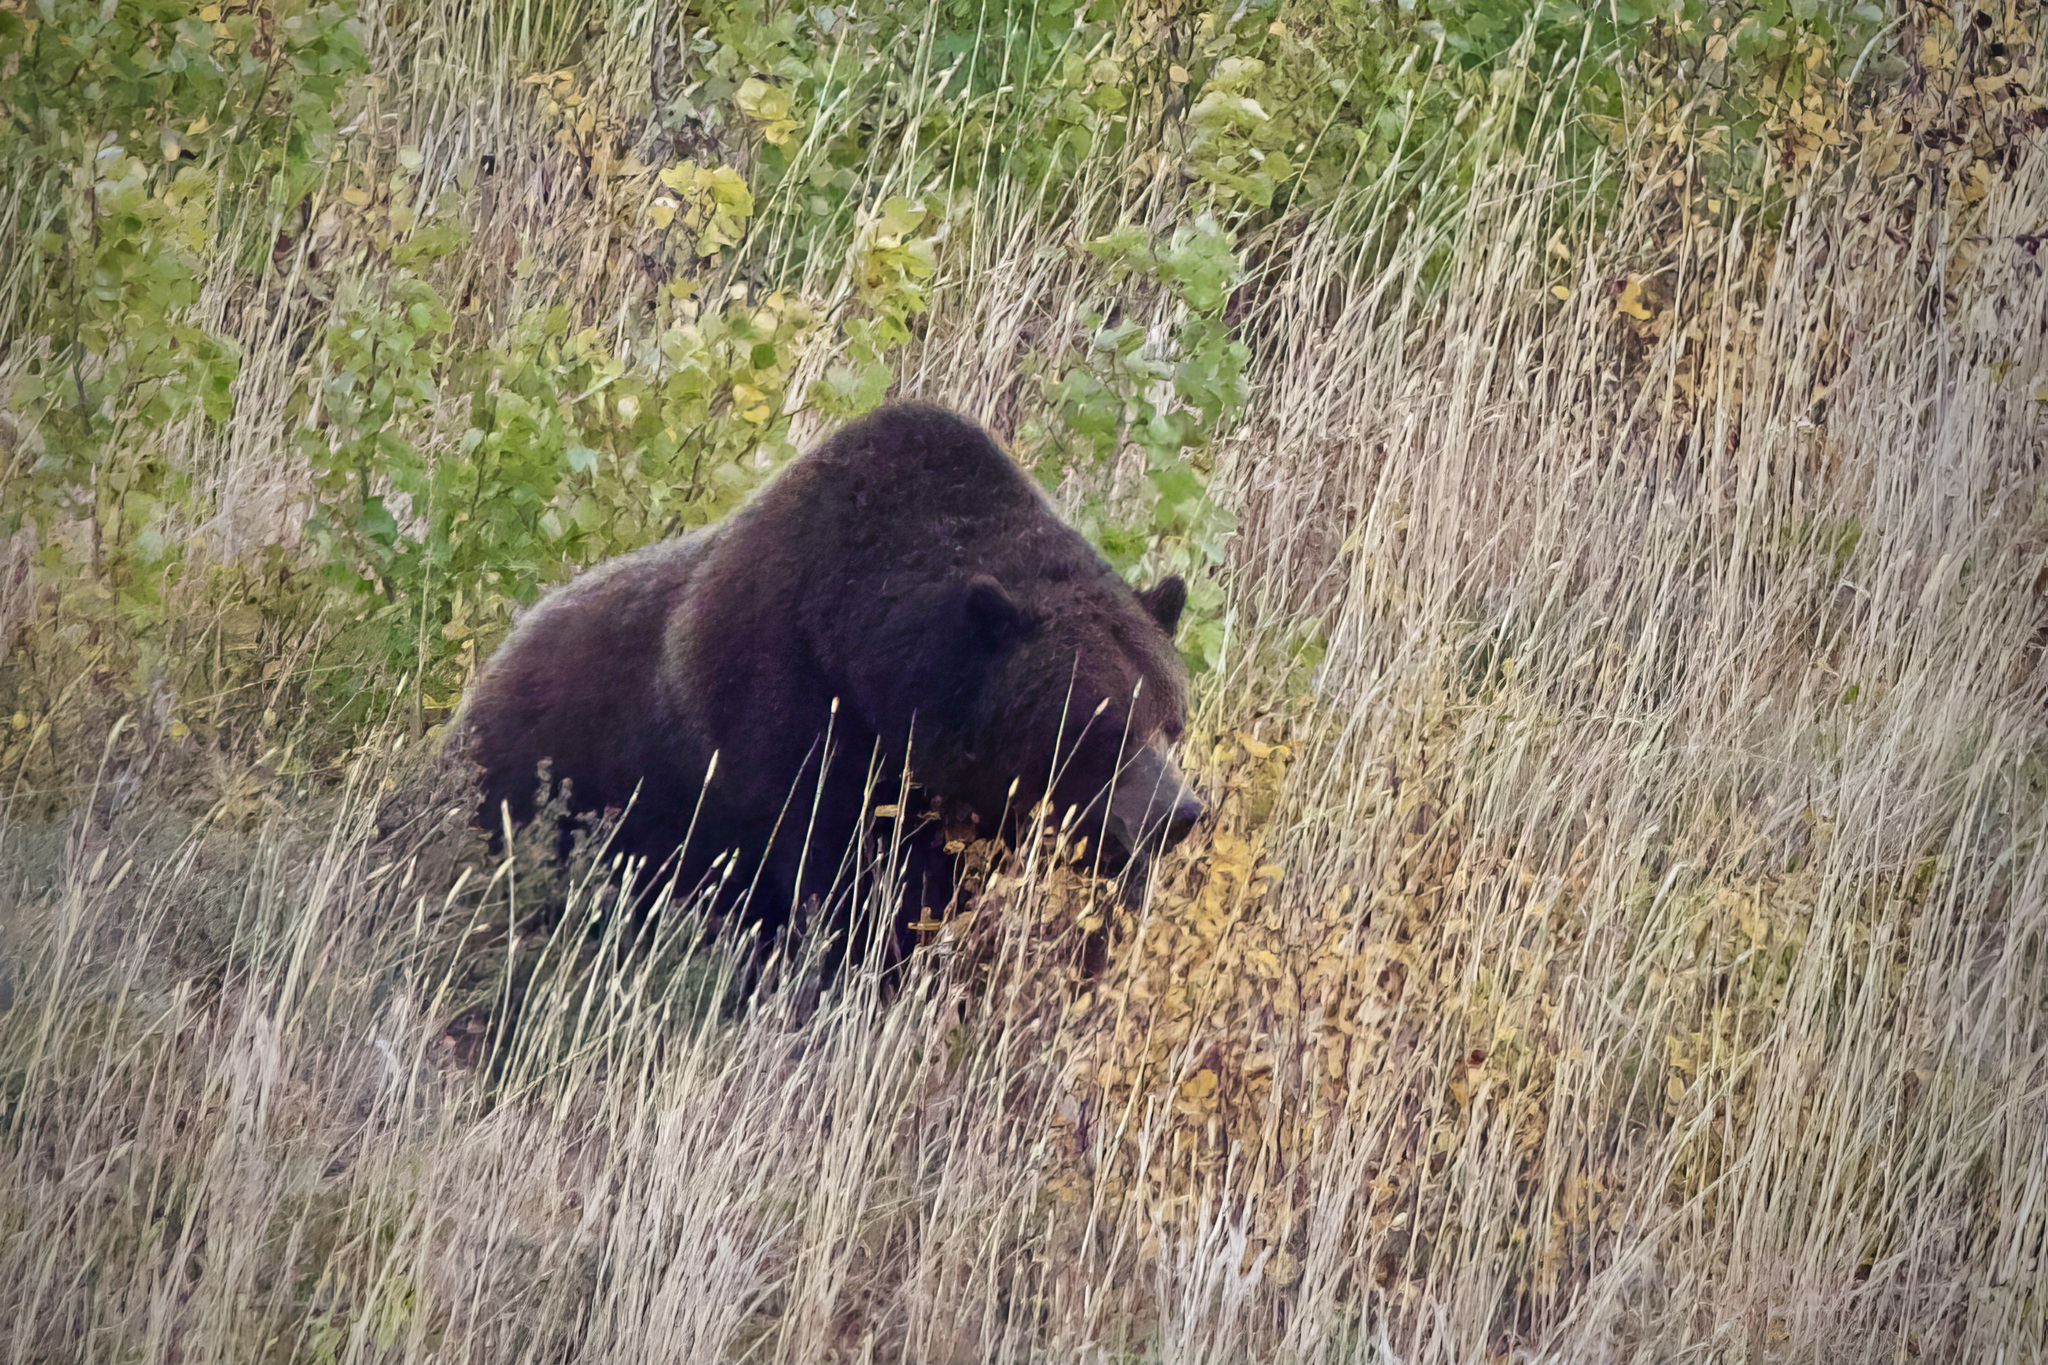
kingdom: Animalia
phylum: Chordata
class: Mammalia
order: Carnivora
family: Ursidae
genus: Ursus
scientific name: Ursus arctos
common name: Brown bear
